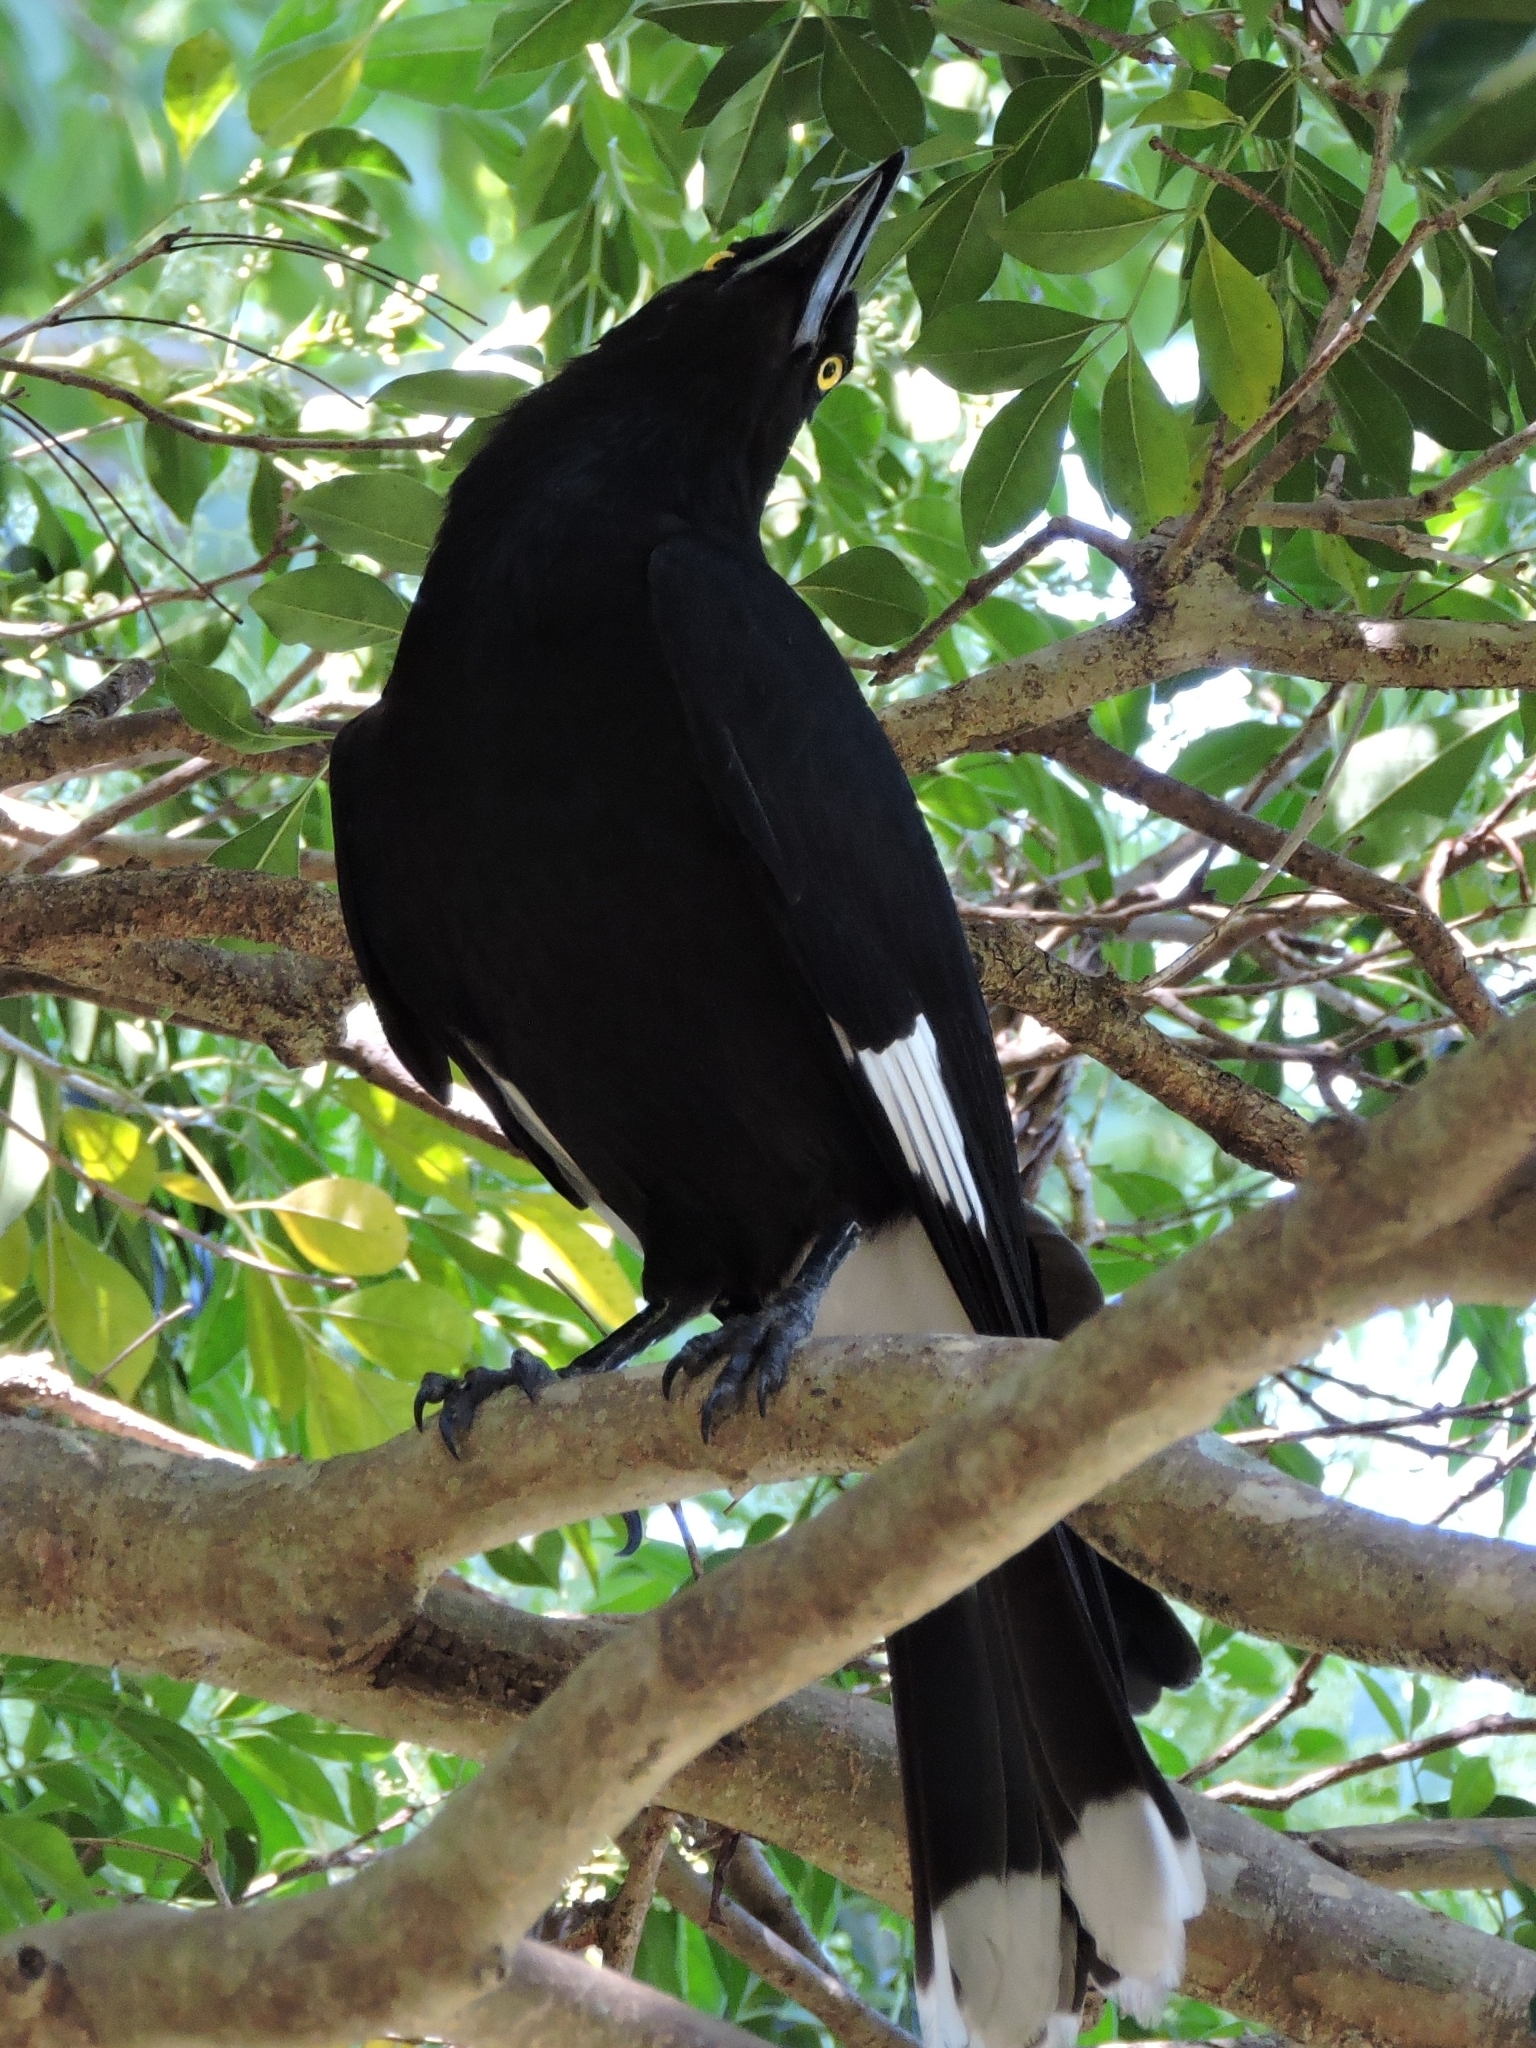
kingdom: Animalia
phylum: Chordata
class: Aves
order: Passeriformes
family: Cracticidae
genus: Strepera
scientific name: Strepera graculina
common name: Pied currawong
